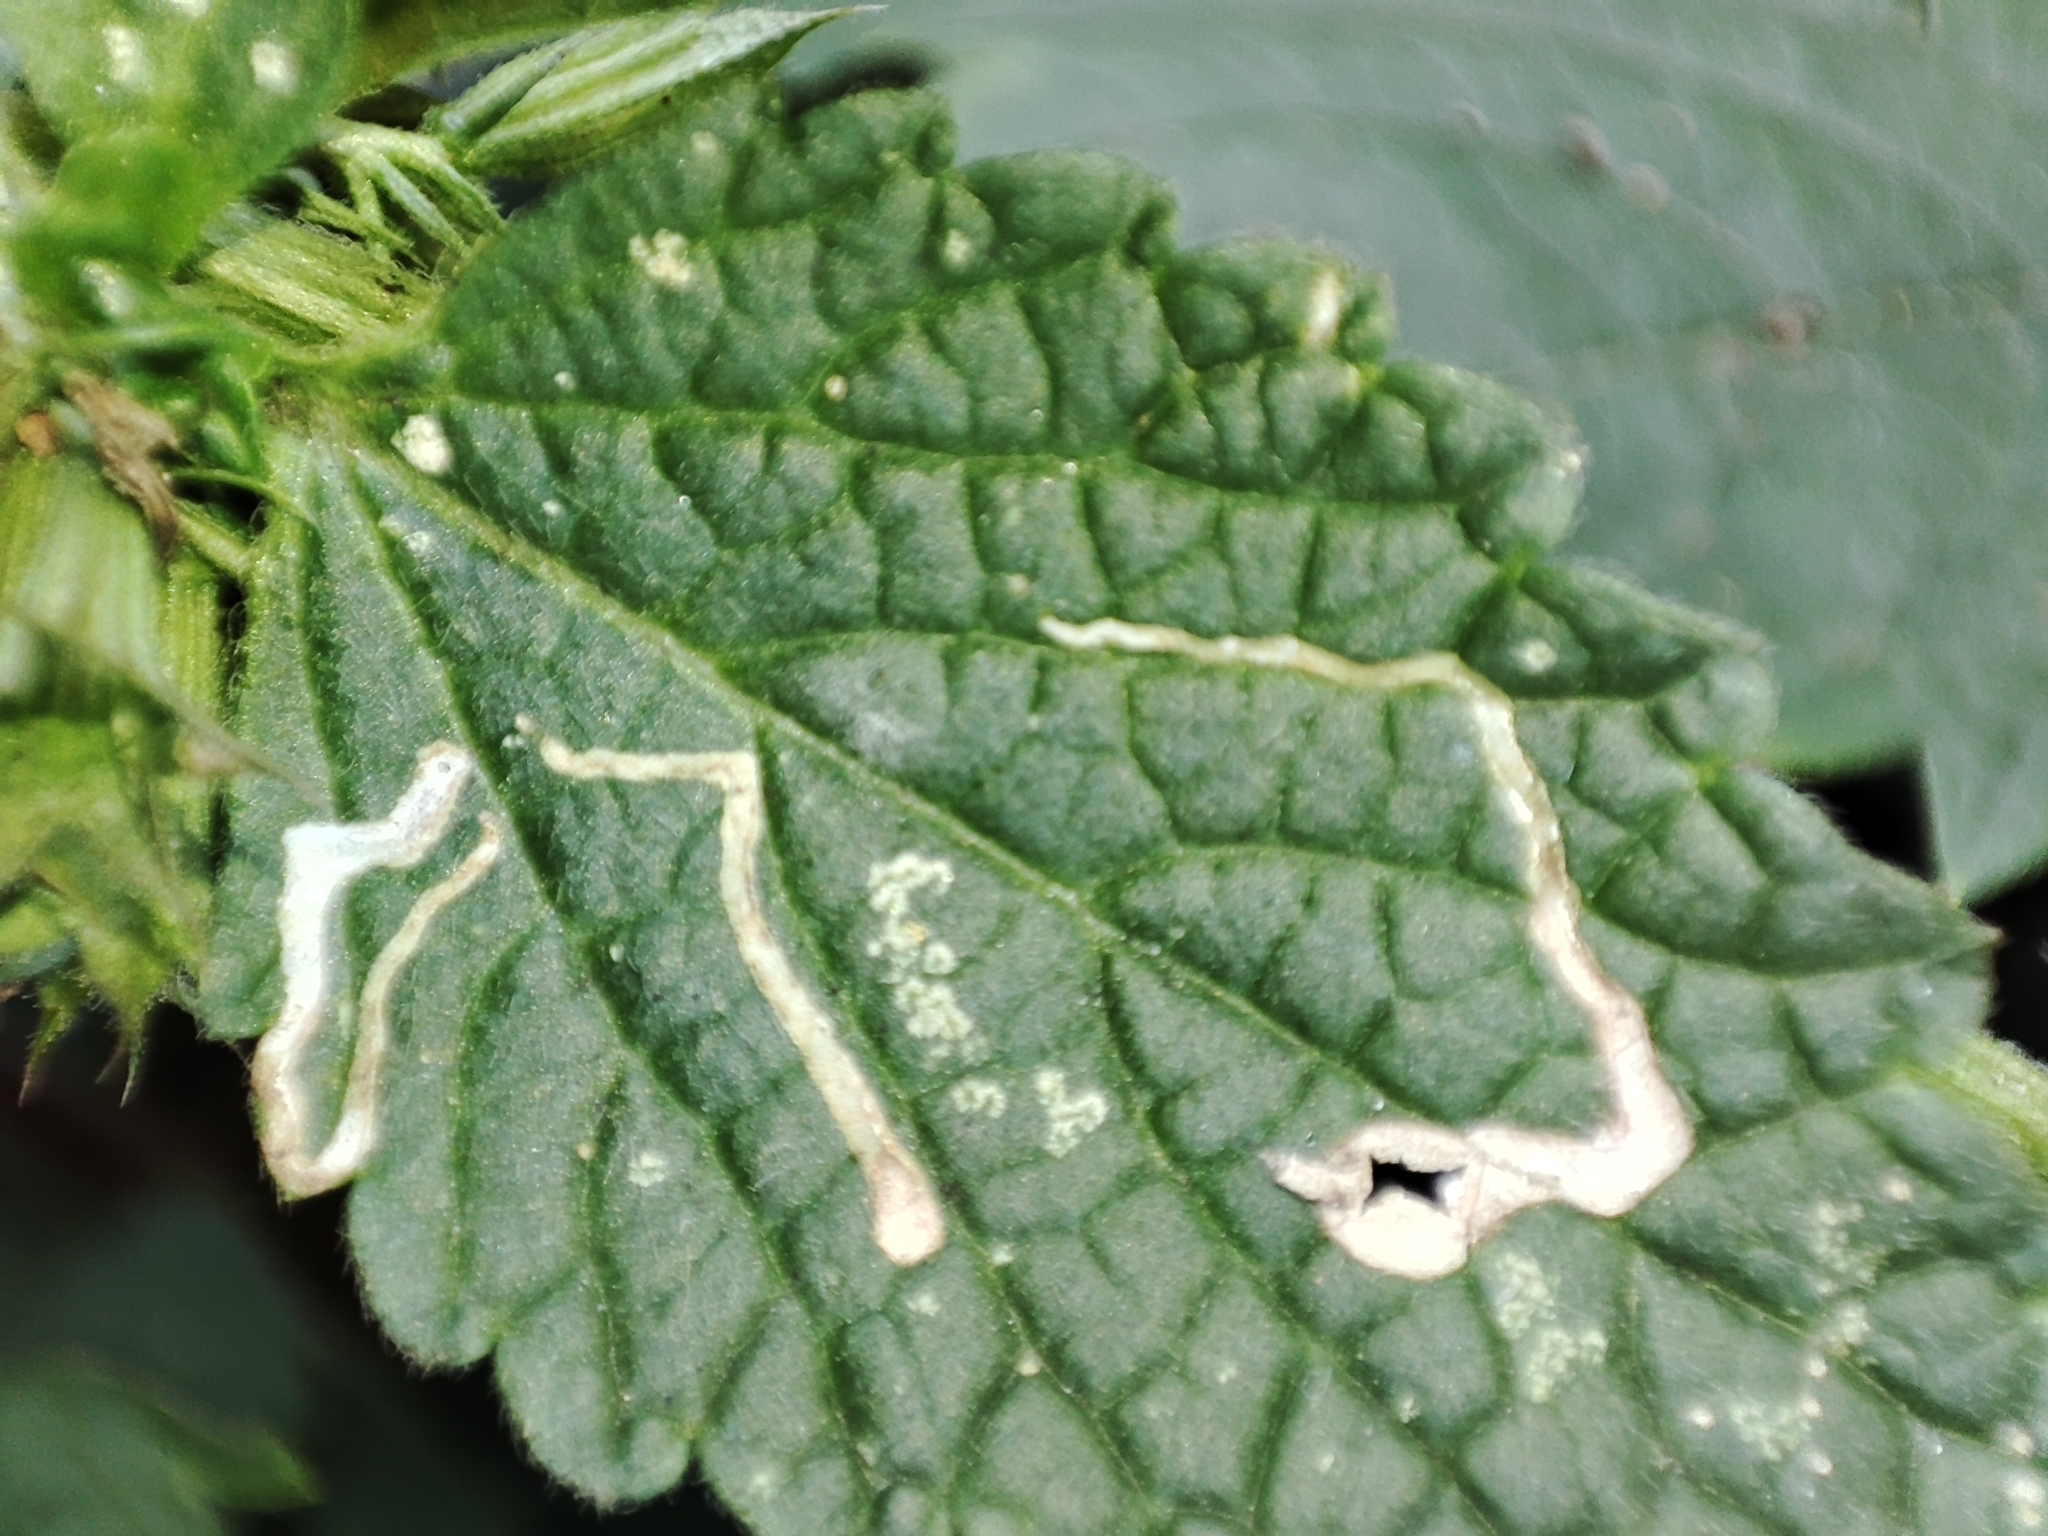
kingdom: Plantae
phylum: Tracheophyta
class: Magnoliopsida
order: Lamiales
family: Lamiaceae
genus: Ballota
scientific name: Ballota nigra
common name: Black horehound
